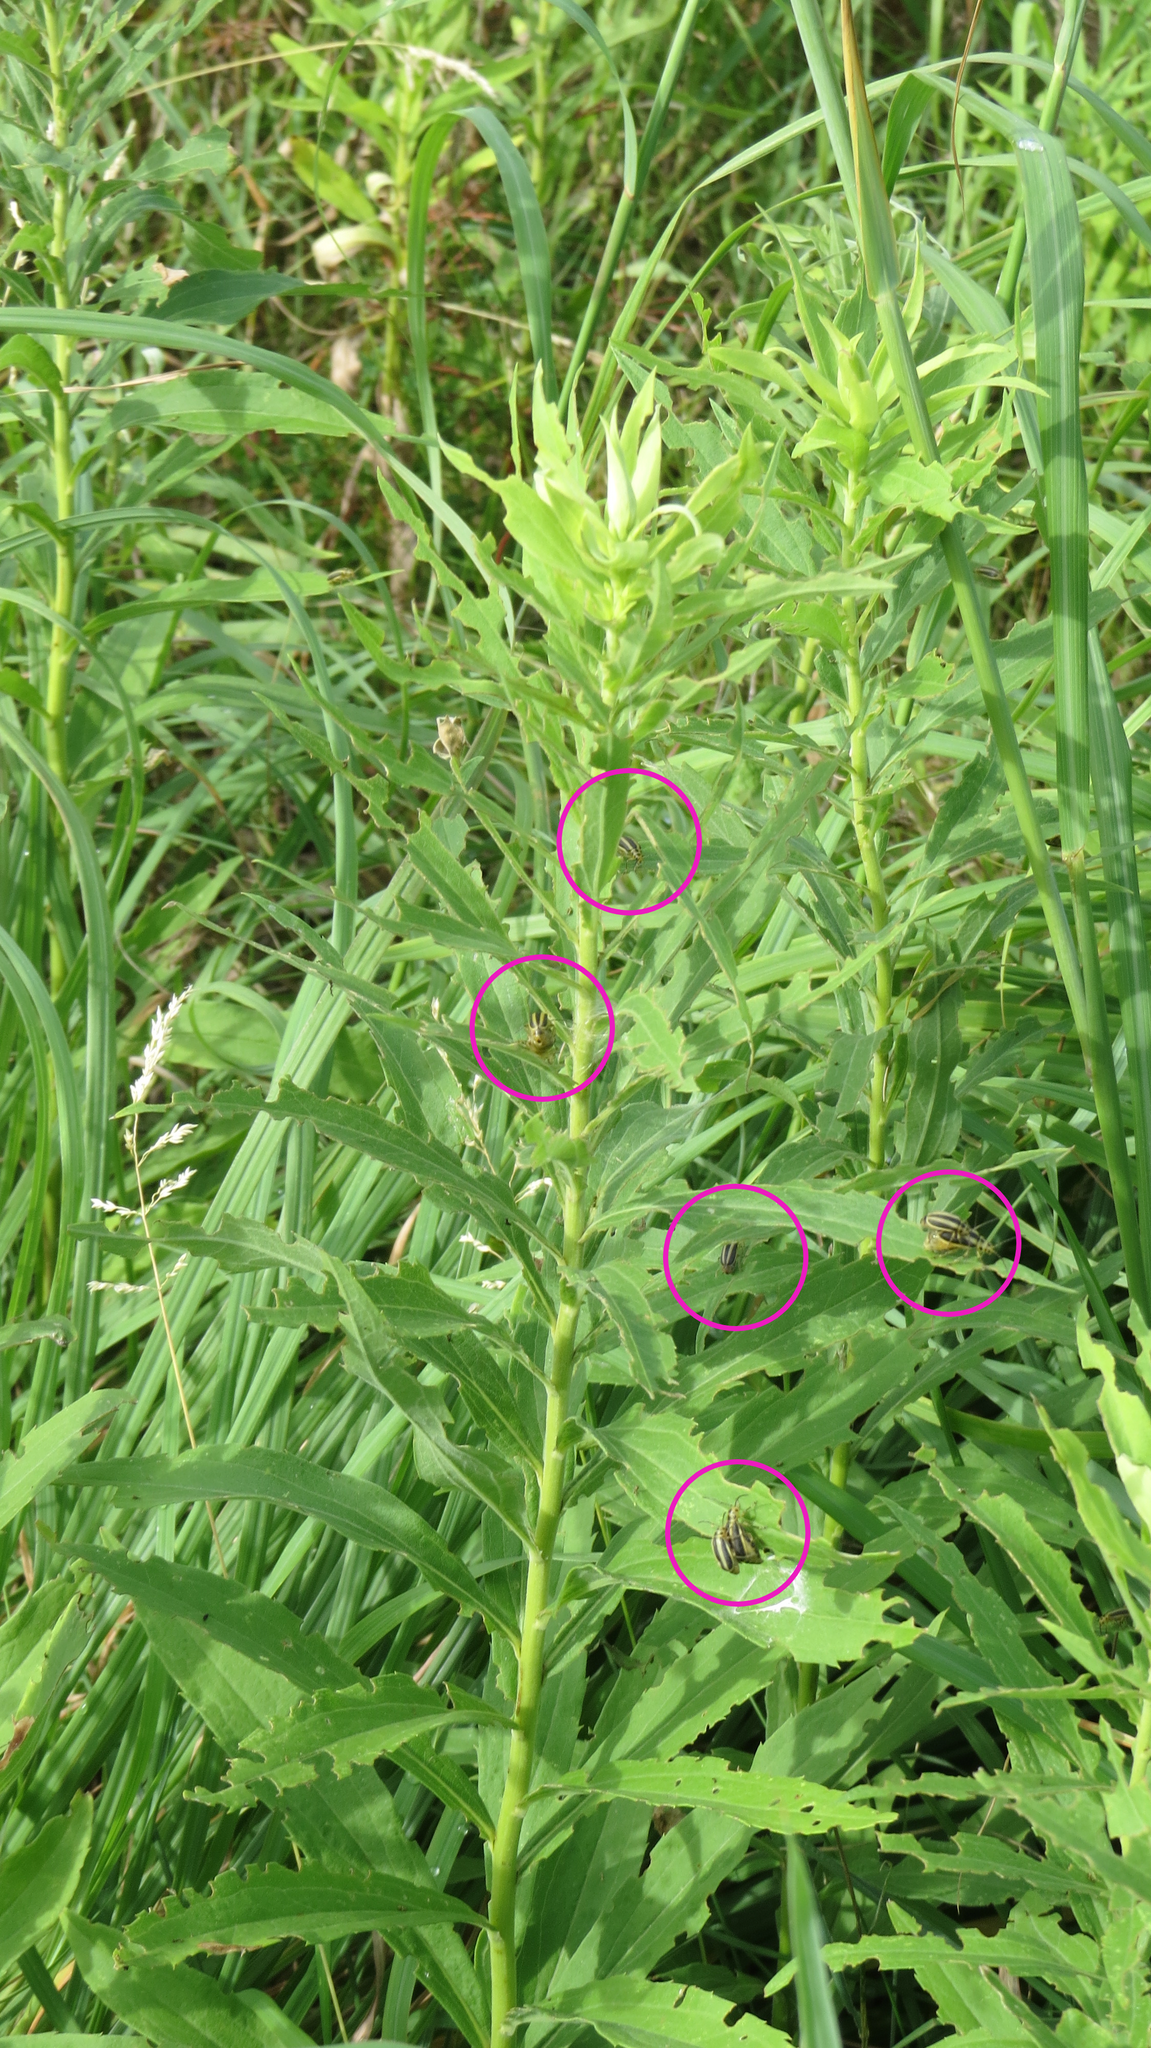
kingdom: Animalia
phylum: Arthropoda
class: Insecta
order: Coleoptera
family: Chrysomelidae
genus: Trirhabda
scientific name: Trirhabda canadensis
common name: Goldenrod leaf beetle
